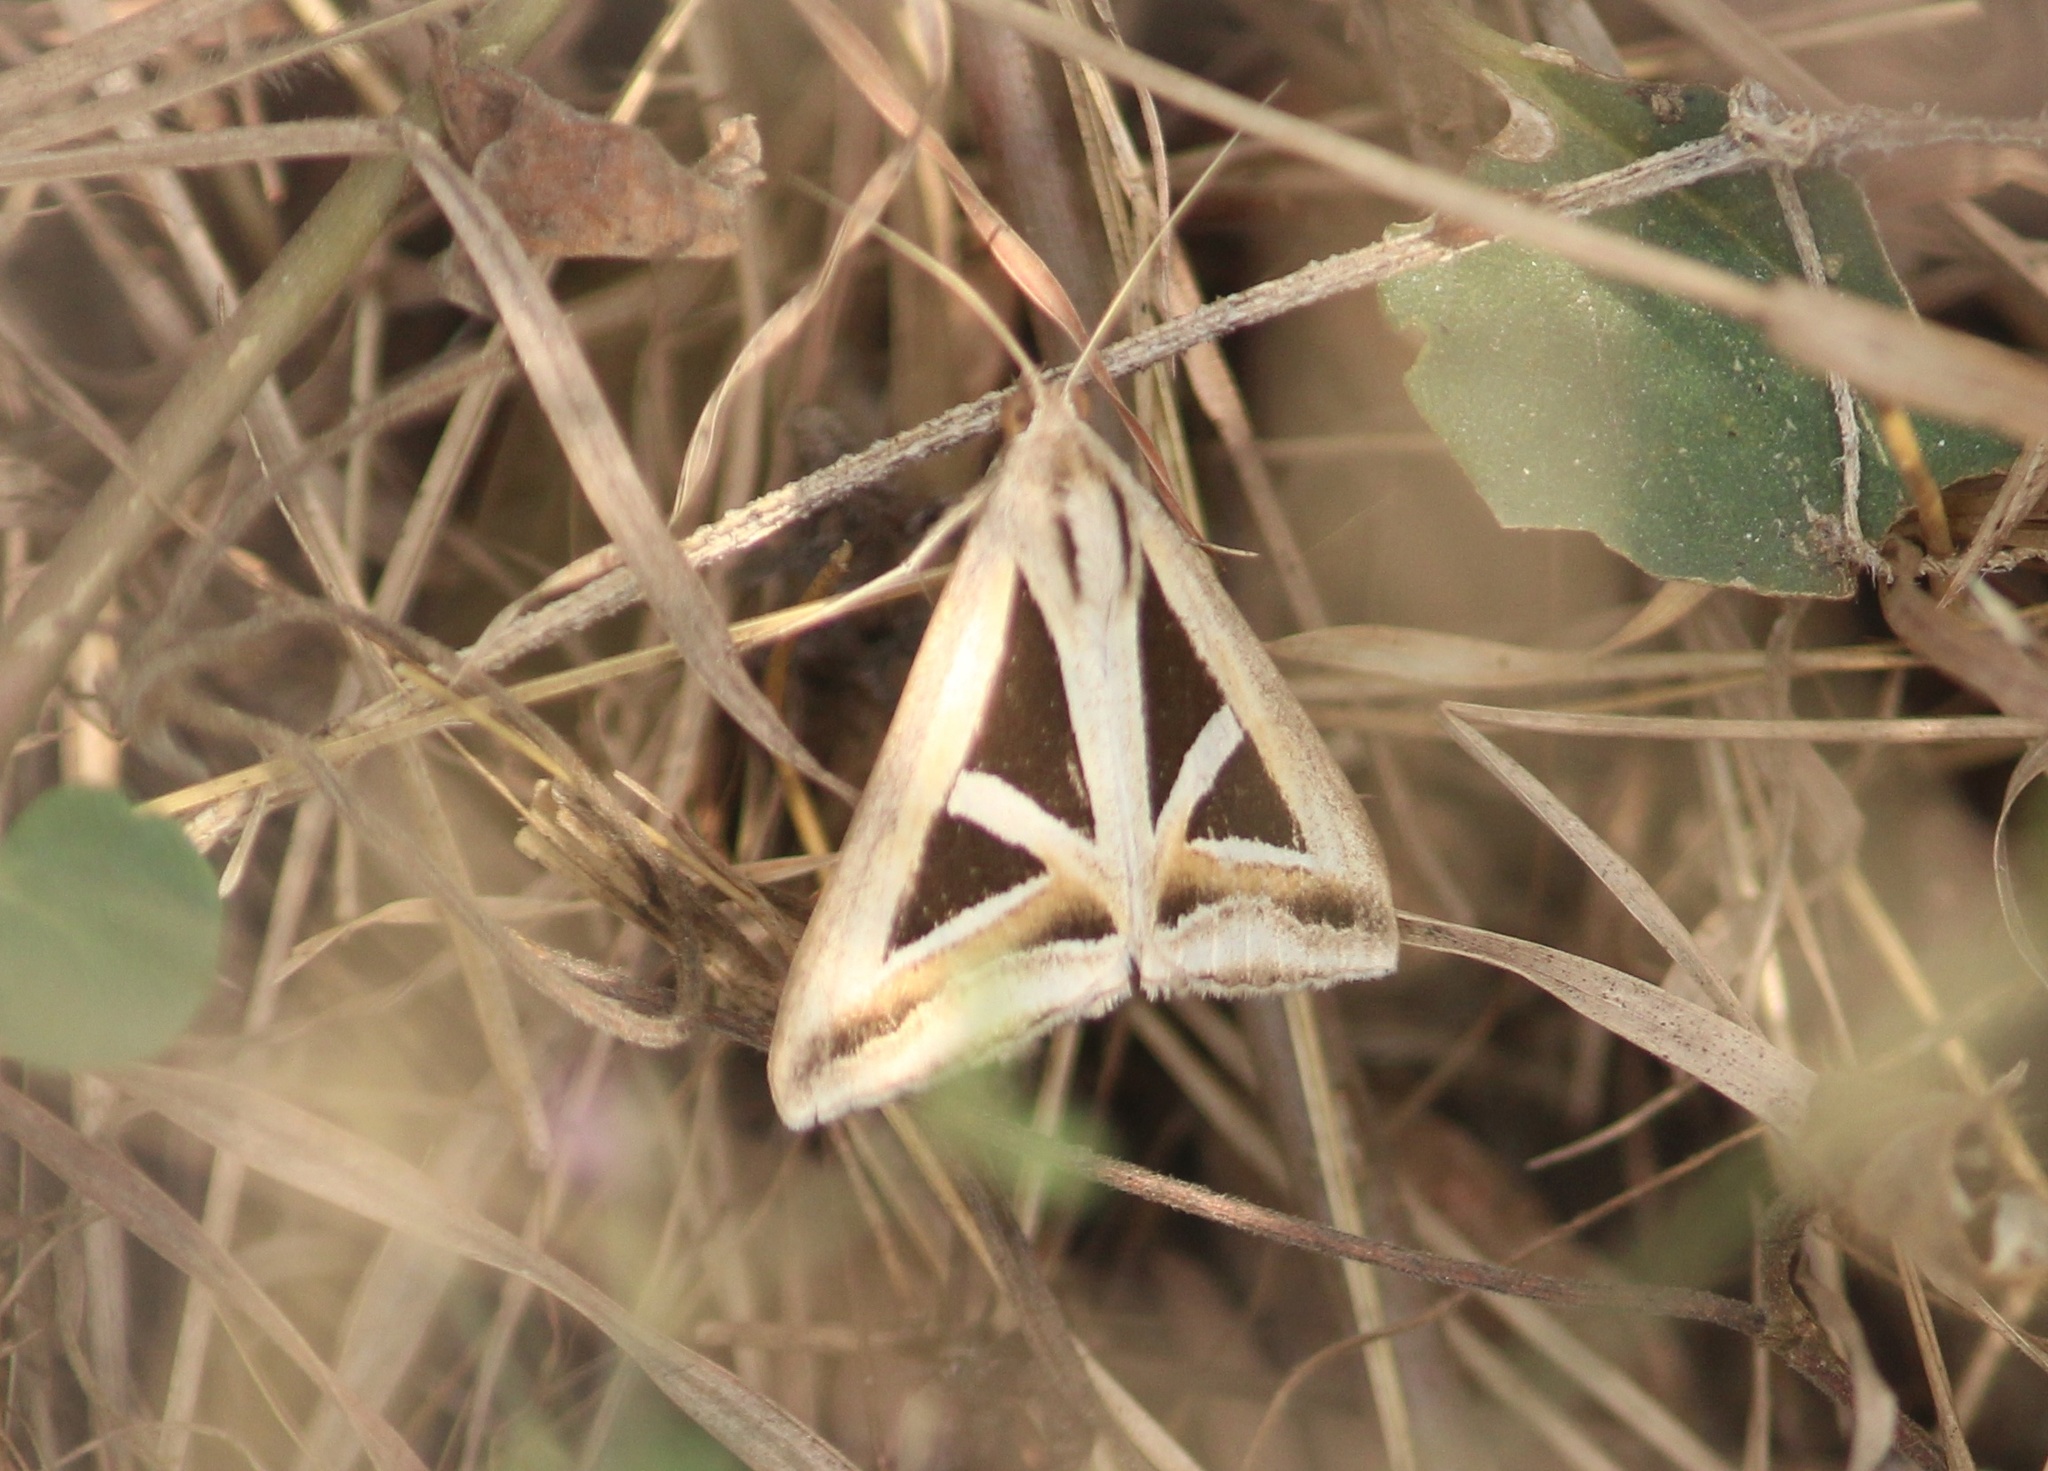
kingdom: Animalia
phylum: Arthropoda
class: Insecta
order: Lepidoptera
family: Erebidae
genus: Trigonodes
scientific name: Trigonodes hyppasia
